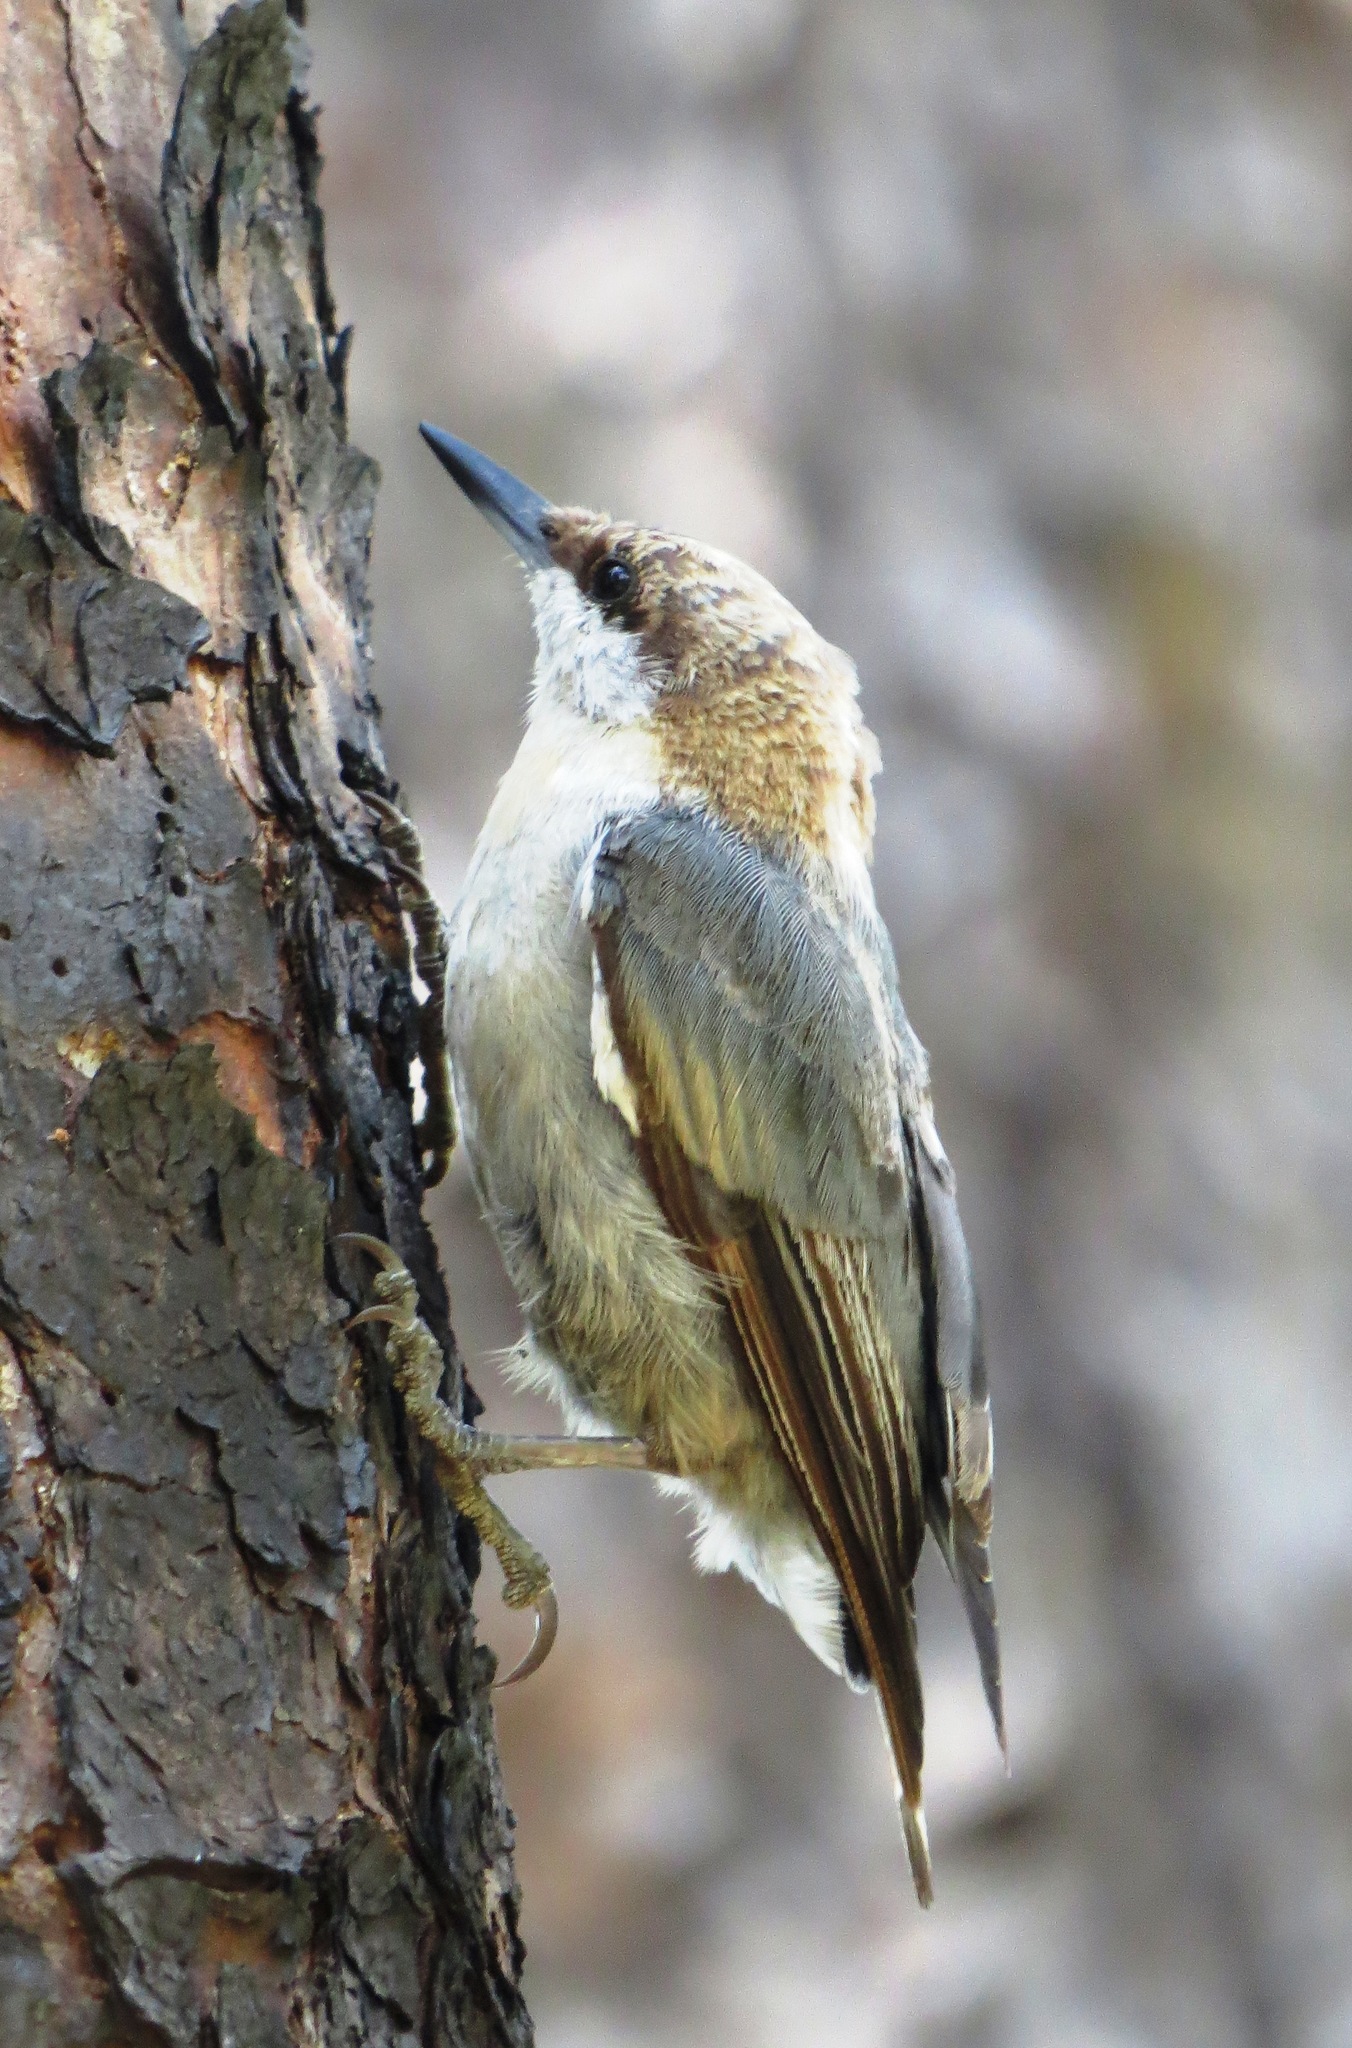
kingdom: Animalia
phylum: Chordata
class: Aves
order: Passeriformes
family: Sittidae
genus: Sitta
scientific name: Sitta pusilla
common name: Brown-headed nuthatch
